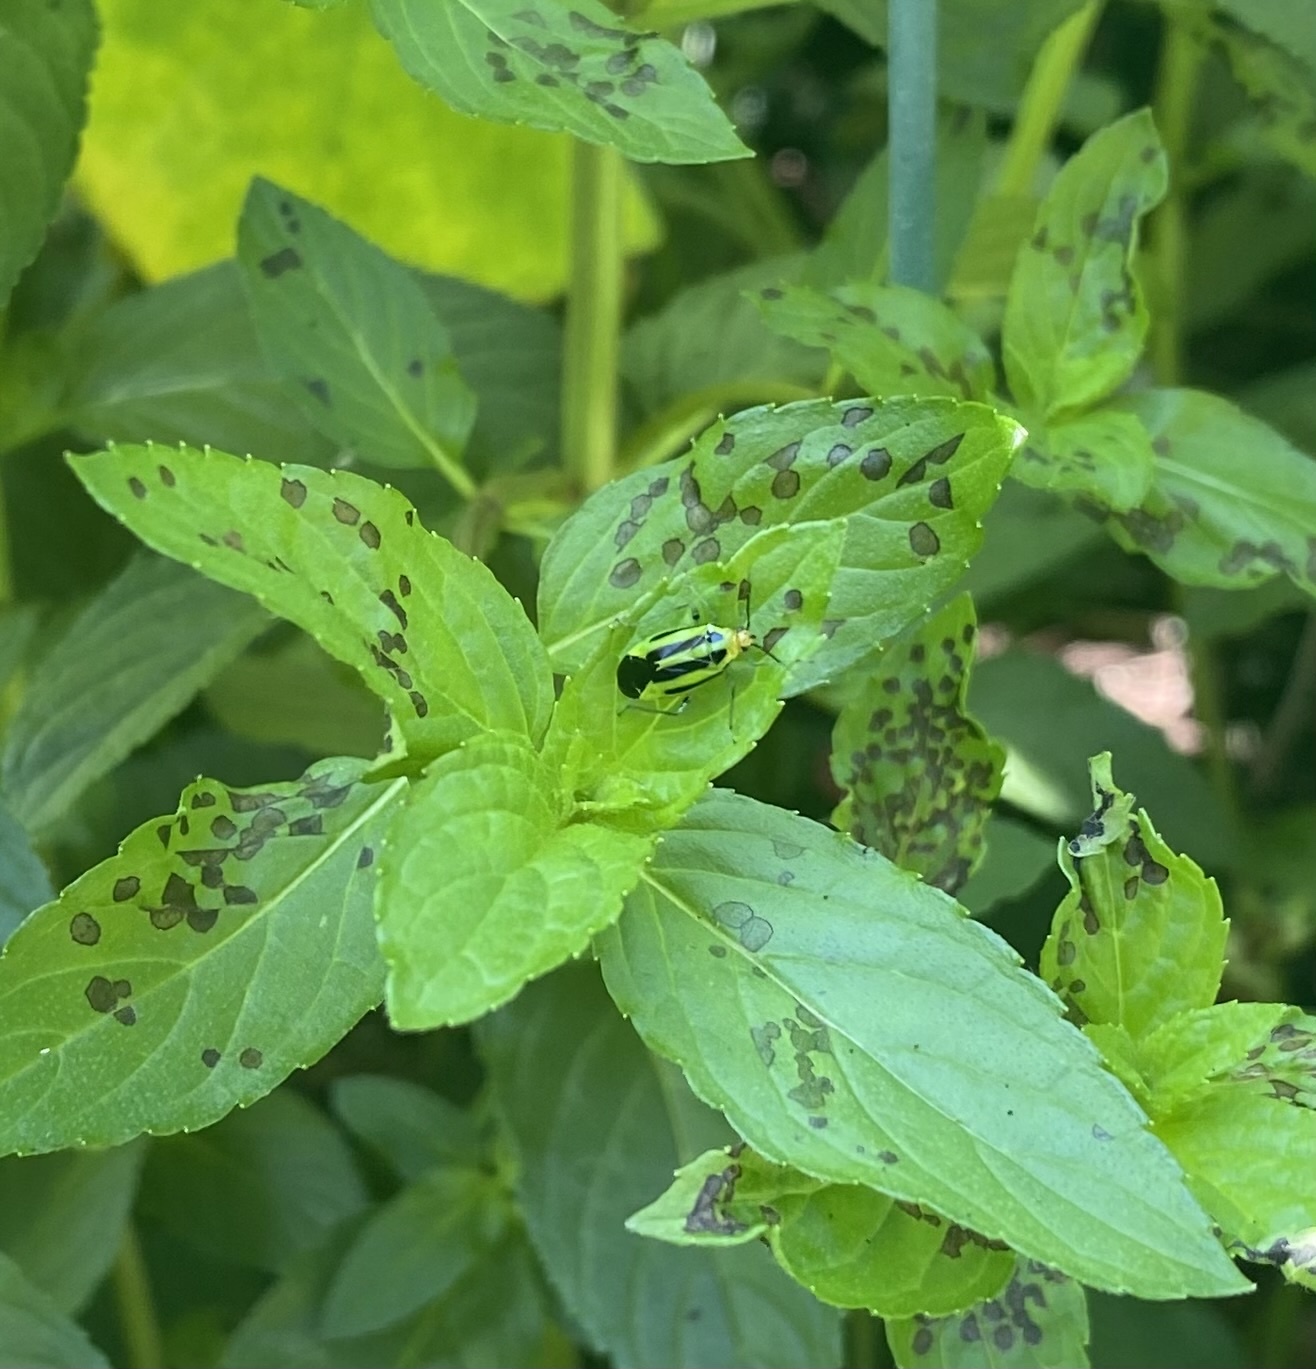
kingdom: Animalia
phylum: Arthropoda
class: Insecta
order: Hemiptera
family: Miridae
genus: Poecilocapsus
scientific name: Poecilocapsus lineatus
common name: Four-lined plant bug
